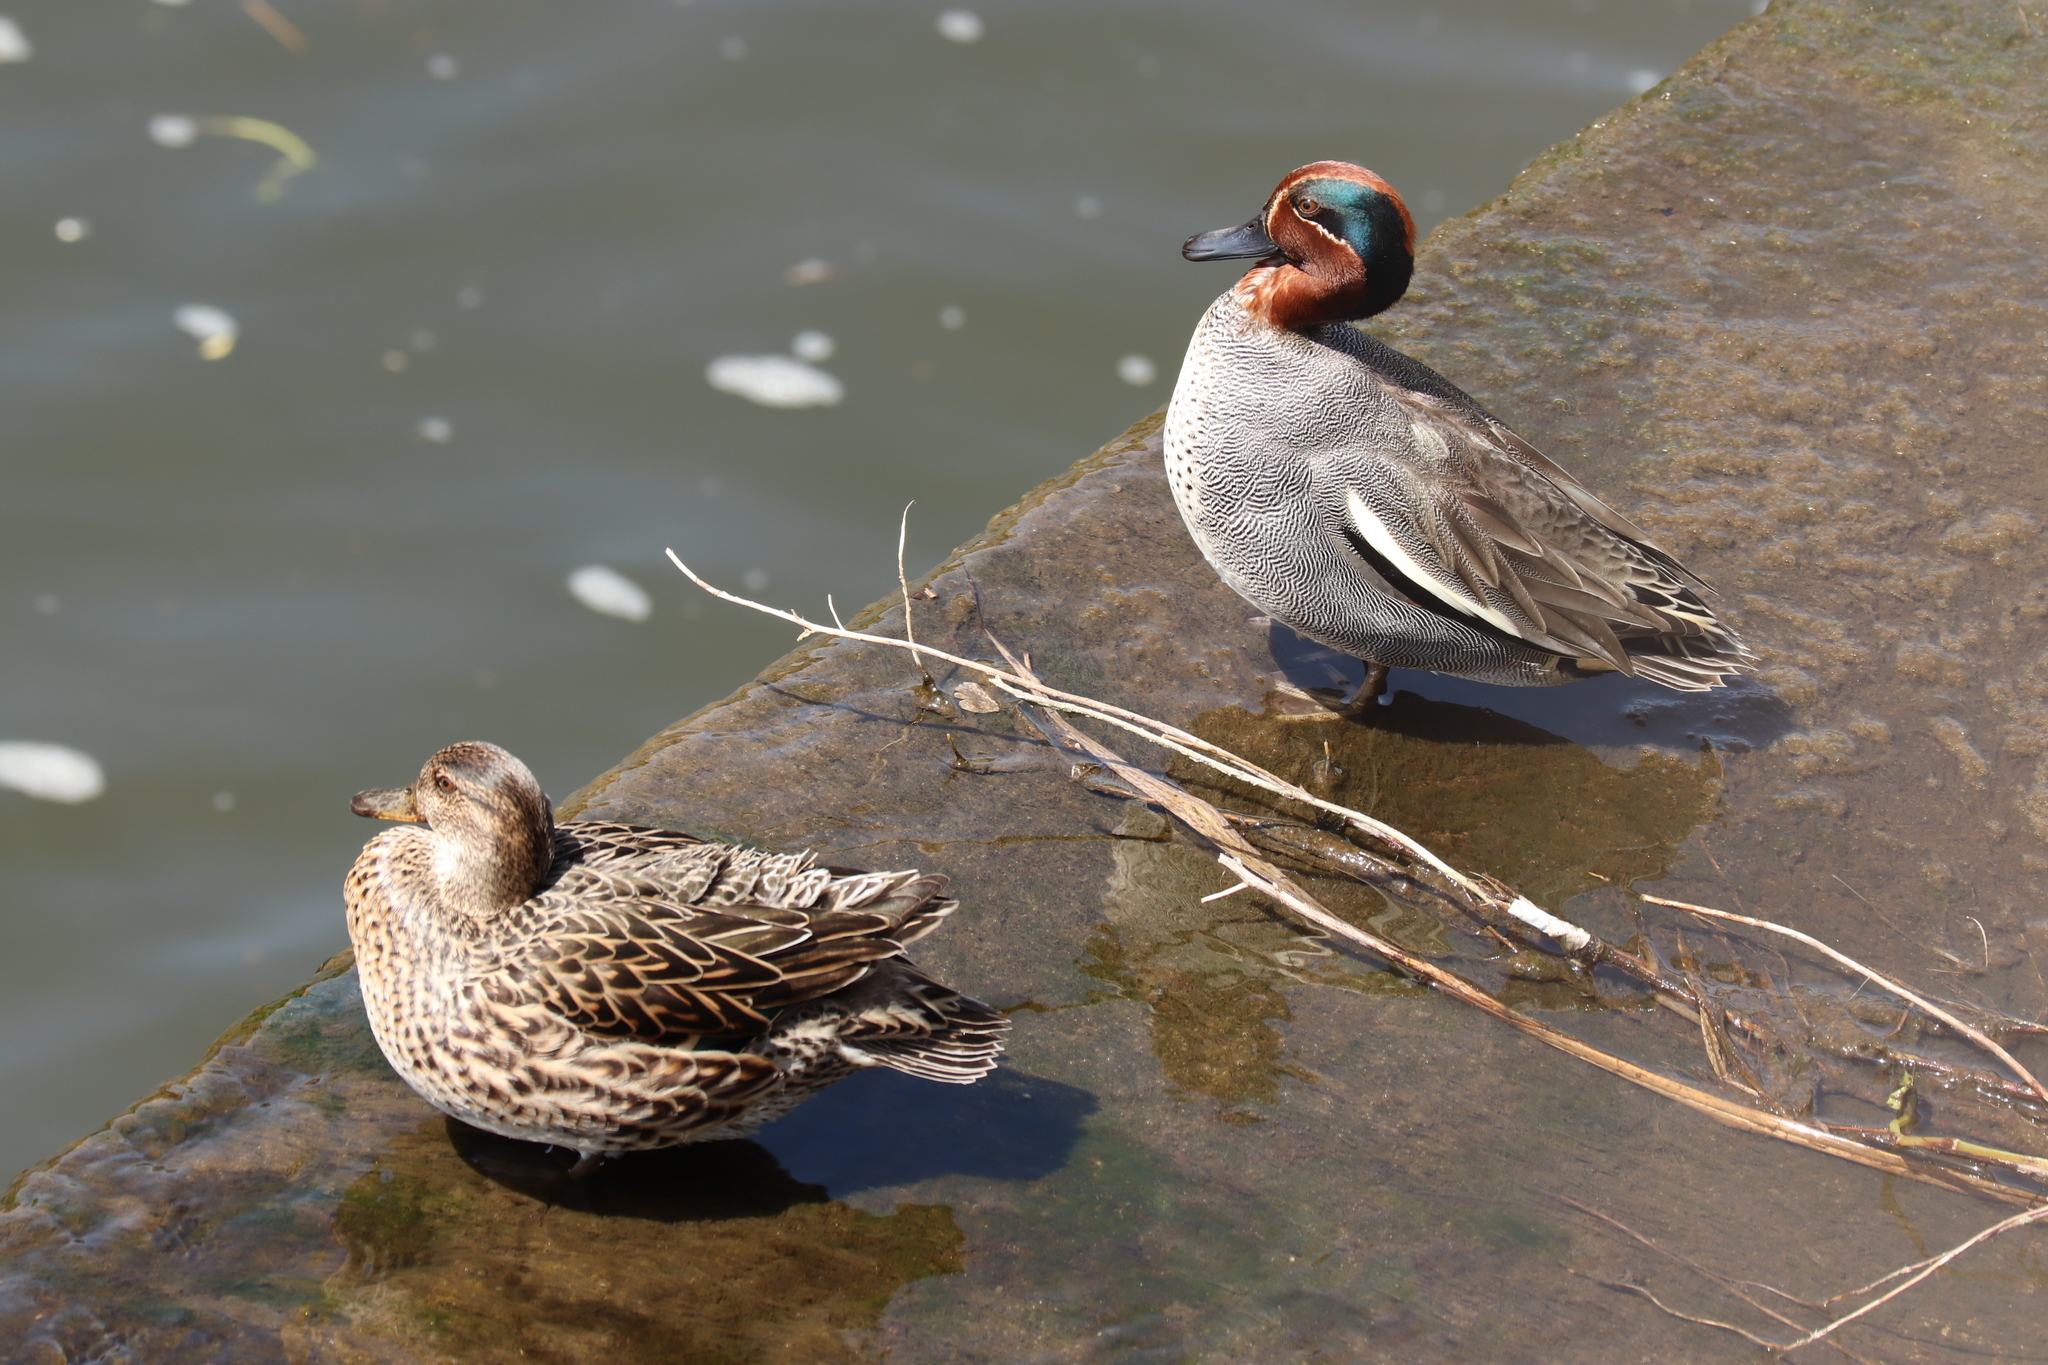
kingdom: Animalia
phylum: Chordata
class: Aves
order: Anseriformes
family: Anatidae
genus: Anas
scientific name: Anas crecca
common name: Eurasian teal
